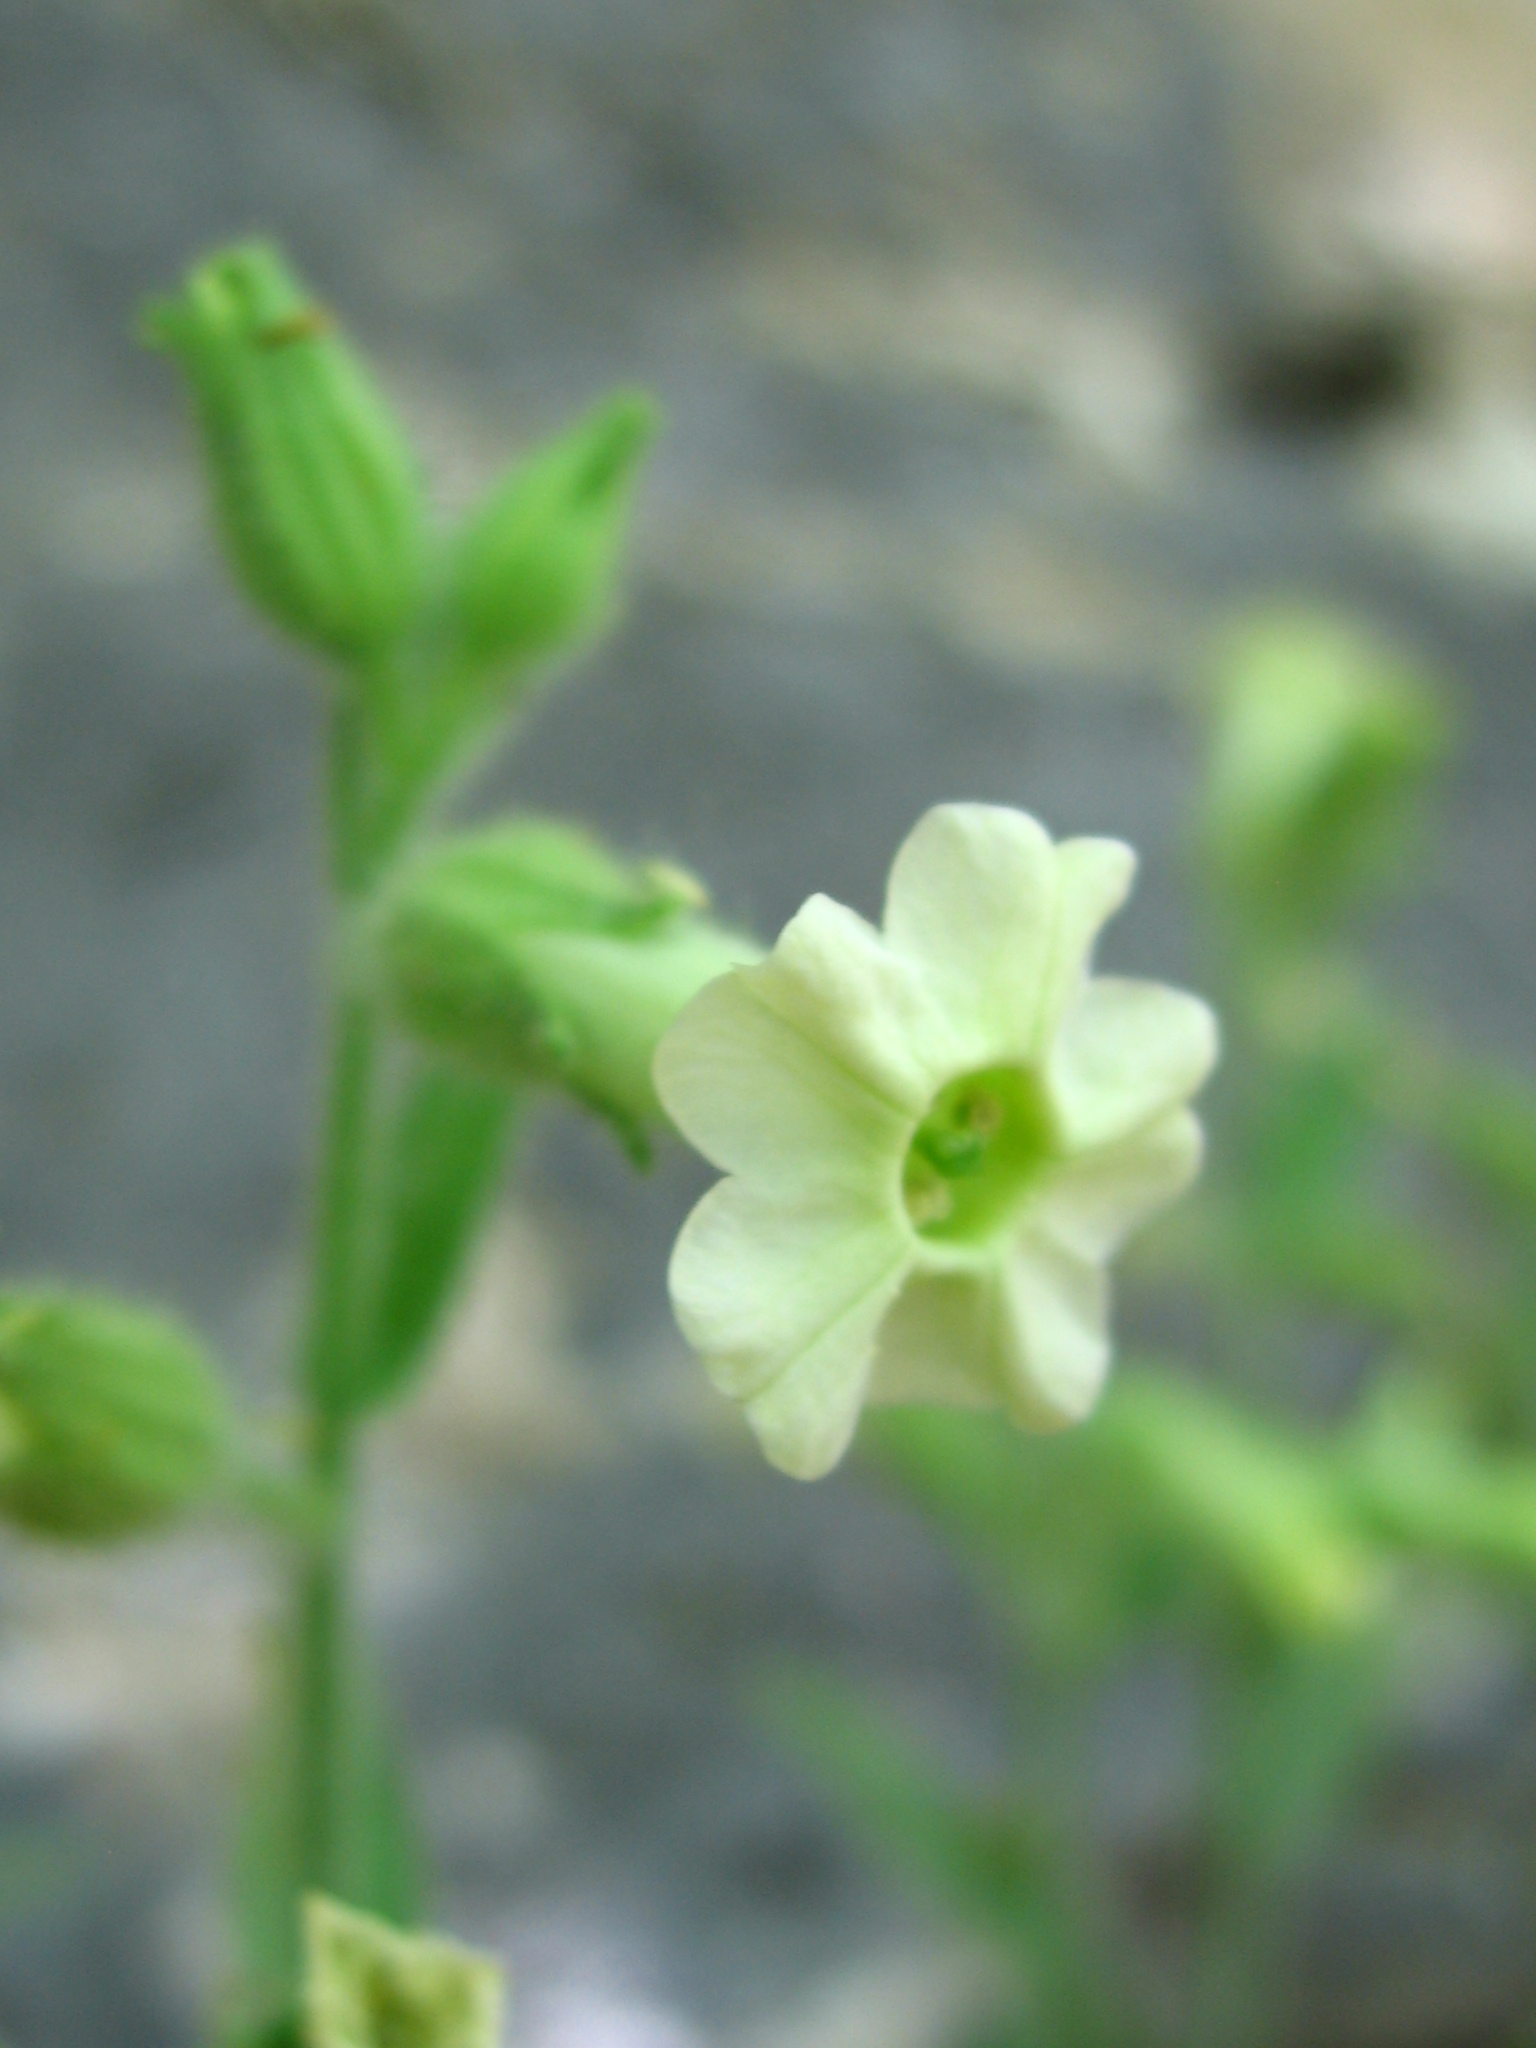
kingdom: Plantae
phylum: Tracheophyta
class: Magnoliopsida
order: Solanales
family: Solanaceae
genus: Nicotiana
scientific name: Nicotiana obtusifolia
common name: Desert tobacco
